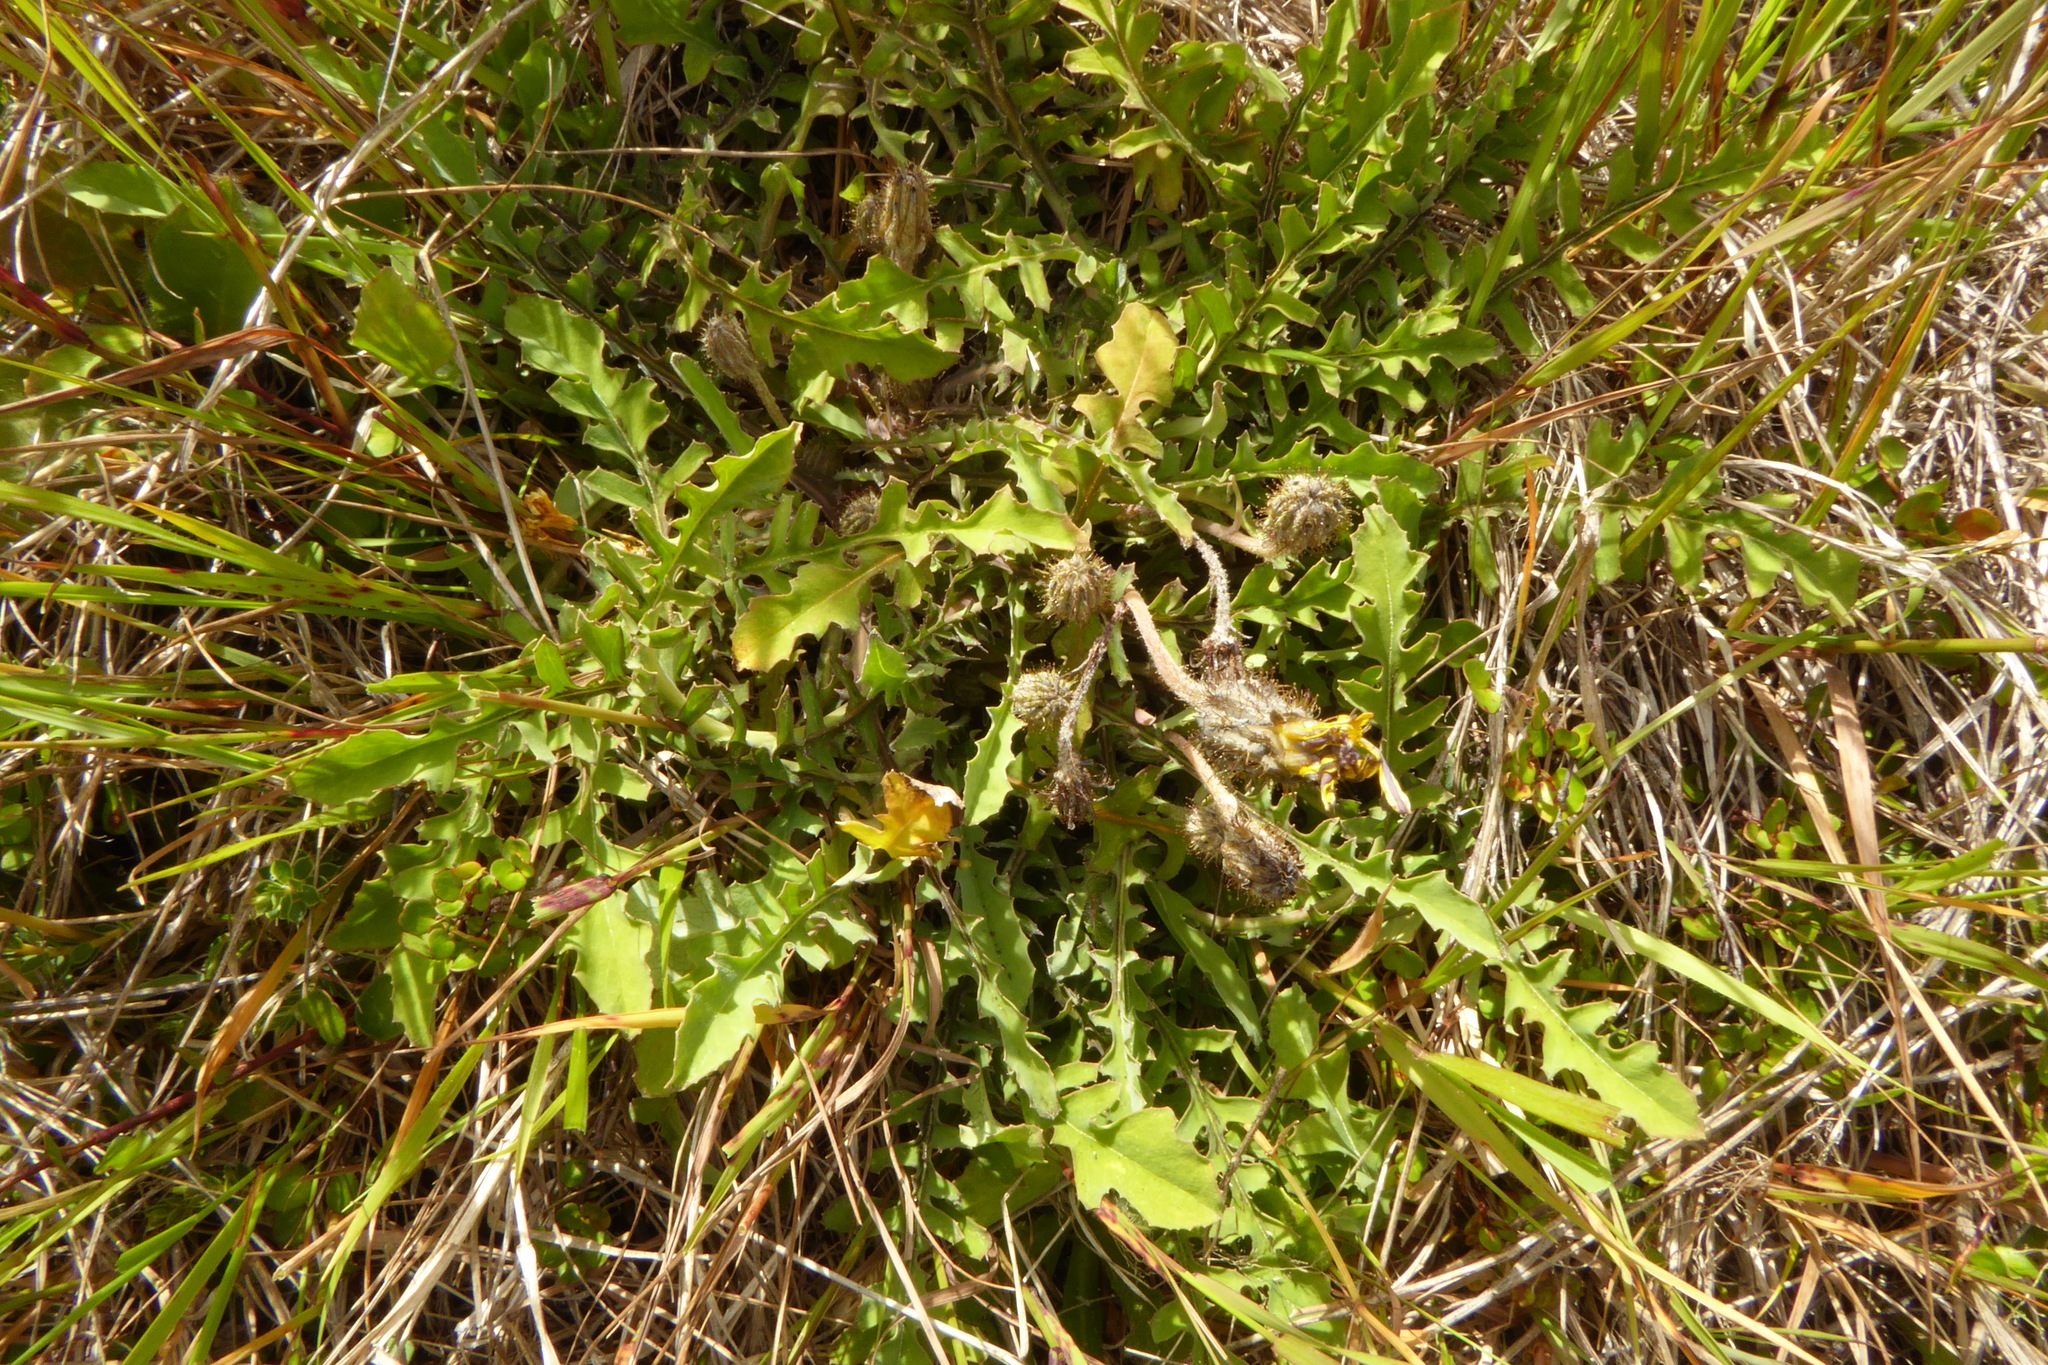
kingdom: Plantae
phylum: Tracheophyta
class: Magnoliopsida
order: Asterales
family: Asteraceae
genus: Sonchus
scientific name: Sonchus novae-zelandiae
